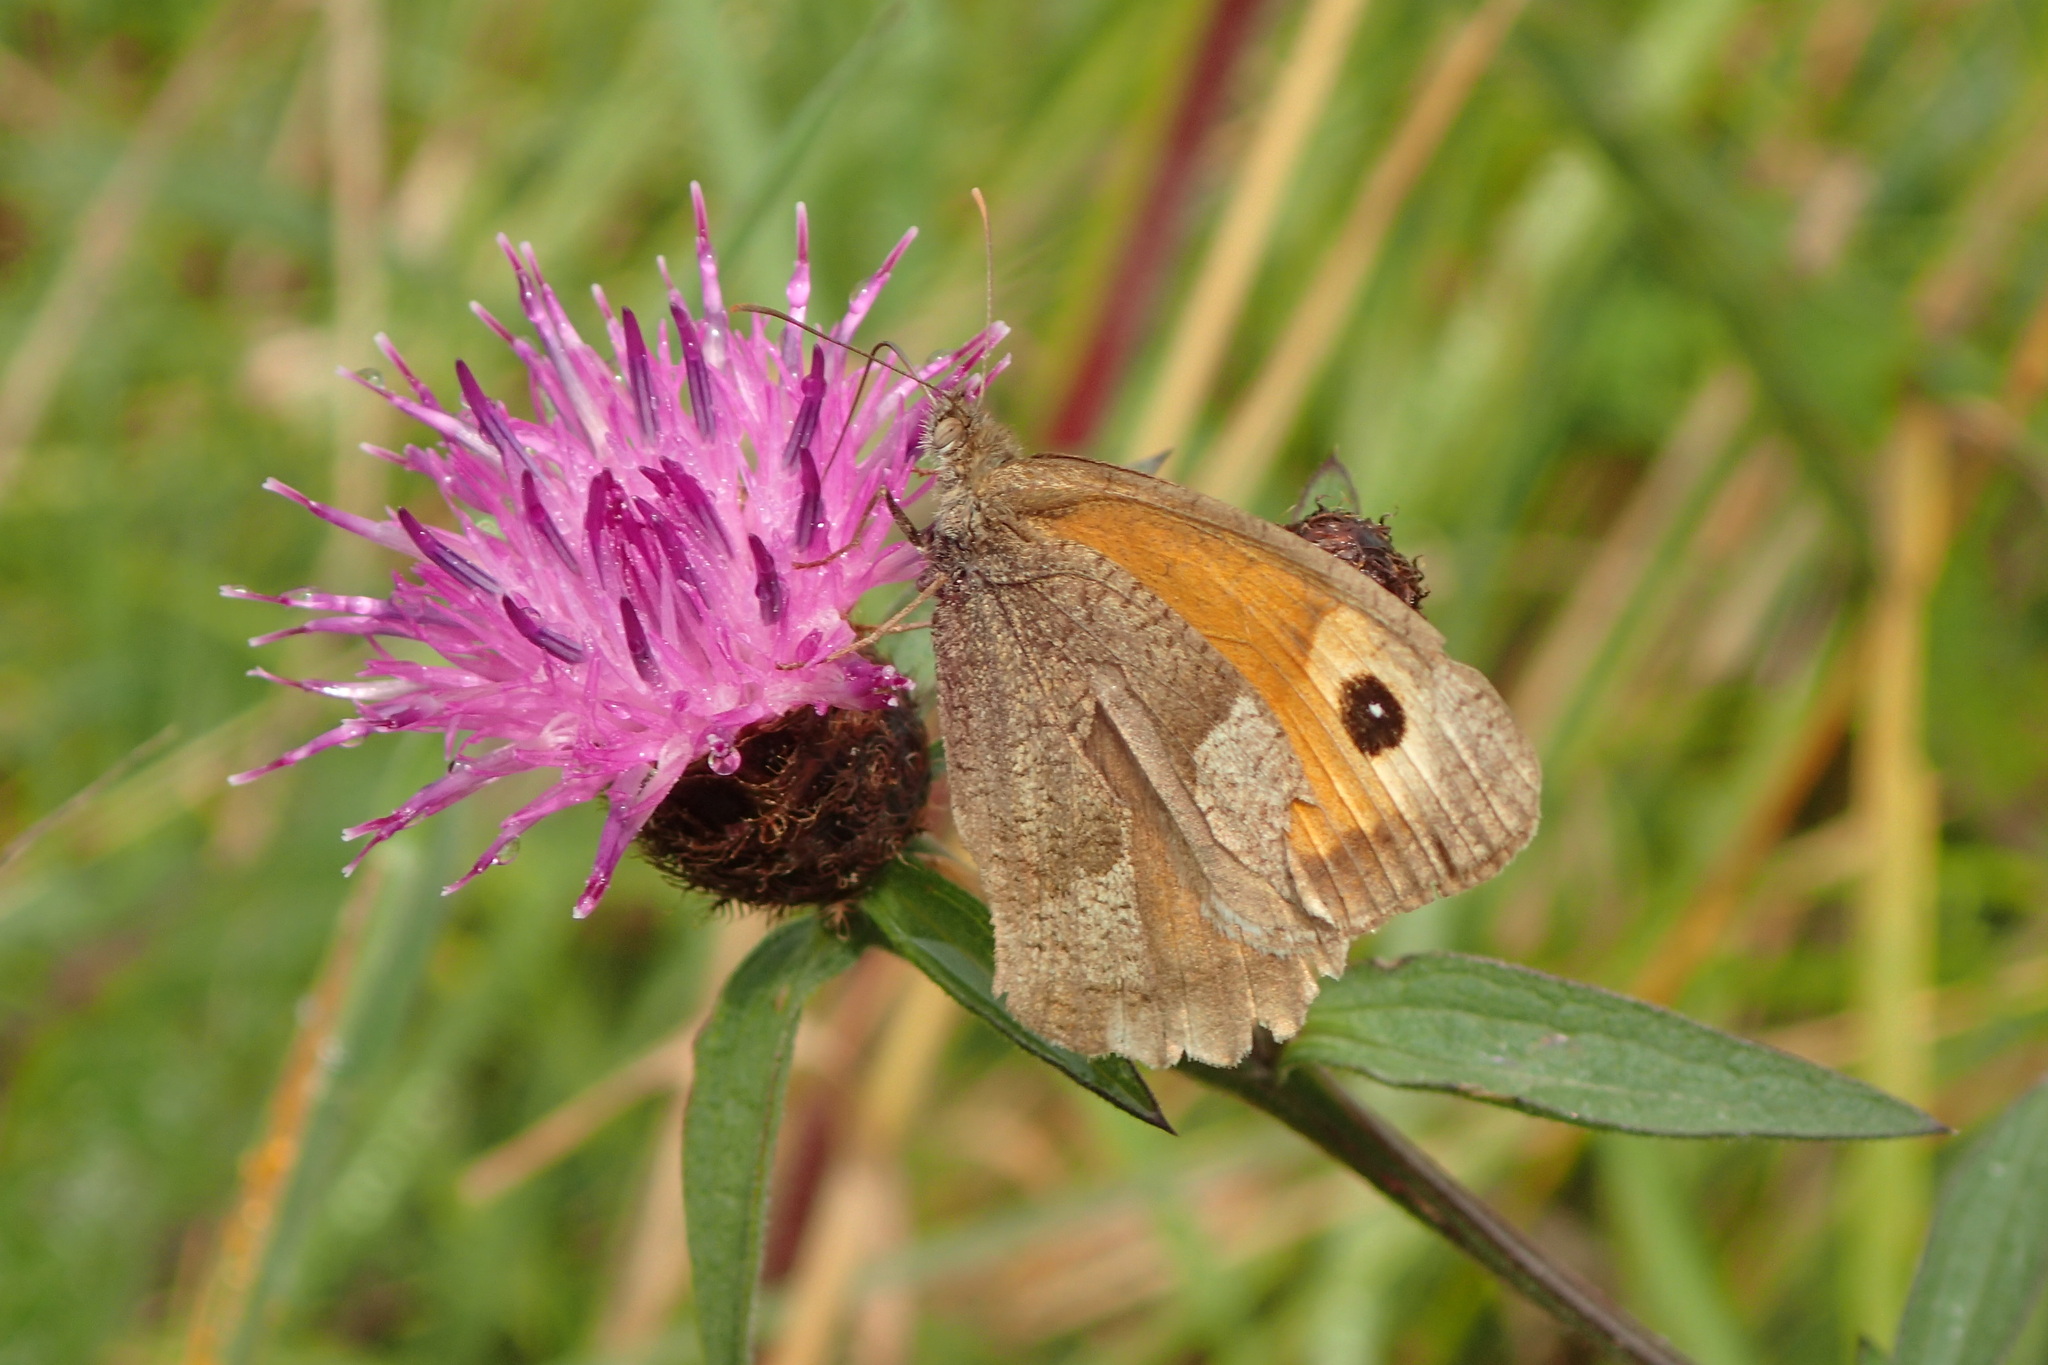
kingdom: Animalia
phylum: Arthropoda
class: Insecta
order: Lepidoptera
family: Nymphalidae
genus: Maniola
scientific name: Maniola jurtina
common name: Meadow brown
